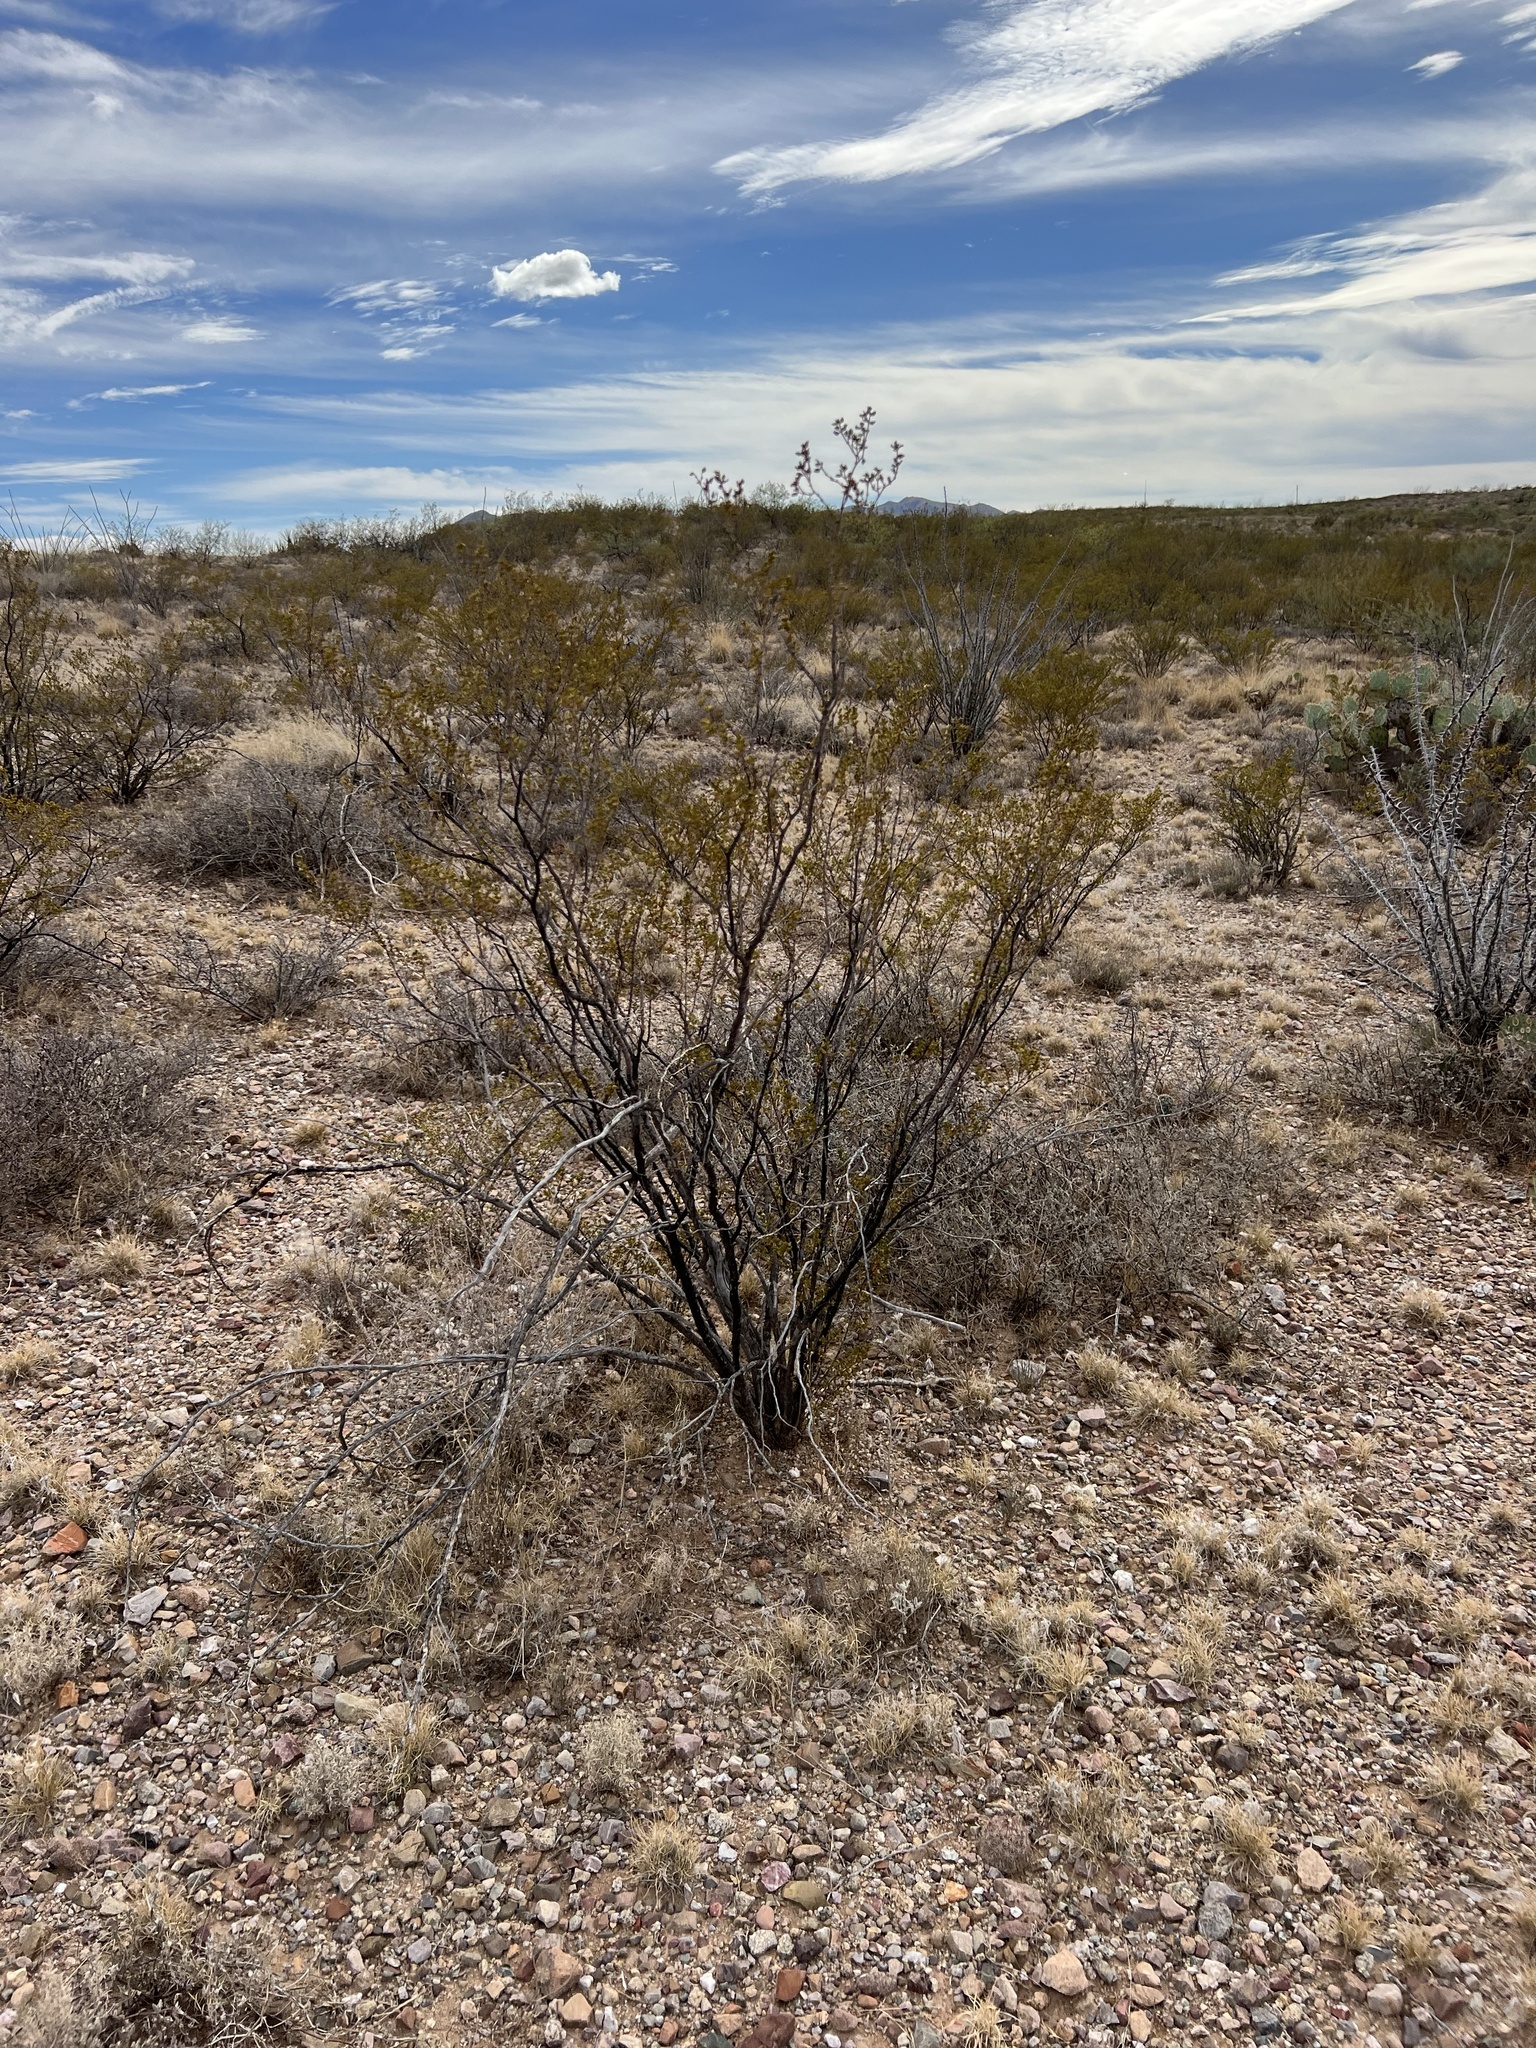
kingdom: Plantae
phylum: Tracheophyta
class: Magnoliopsida
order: Zygophyllales
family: Zygophyllaceae
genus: Larrea
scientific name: Larrea tridentata
